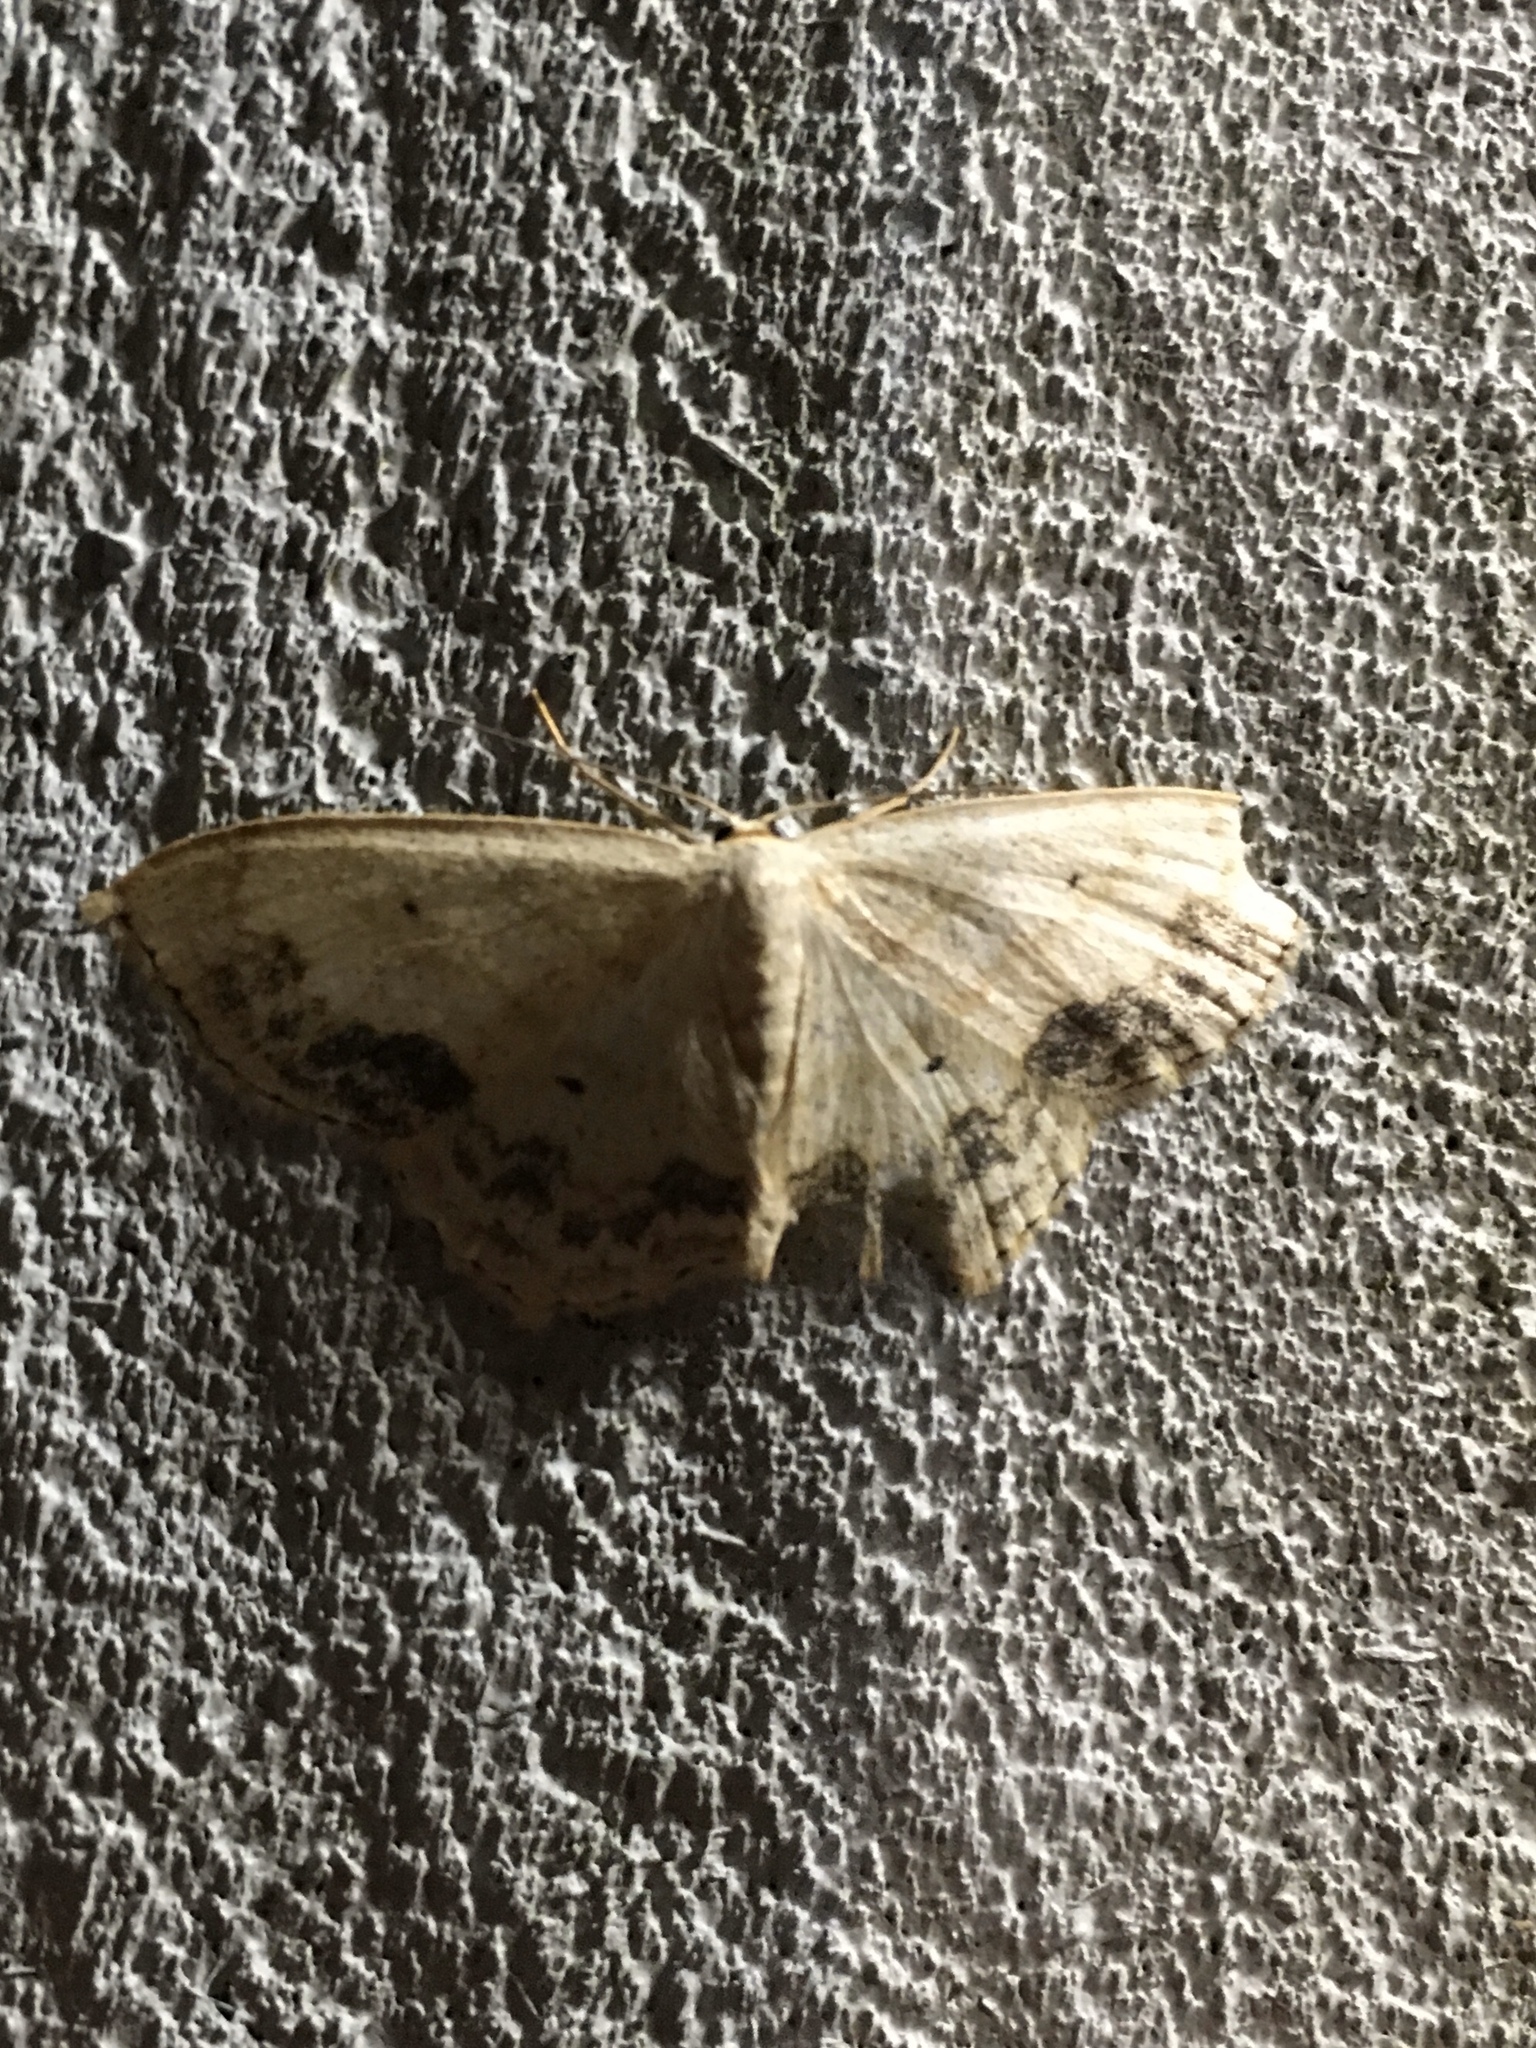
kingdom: Animalia
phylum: Arthropoda
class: Insecta
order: Lepidoptera
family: Geometridae
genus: Scopula
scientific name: Scopula limboundata
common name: Large lace border
